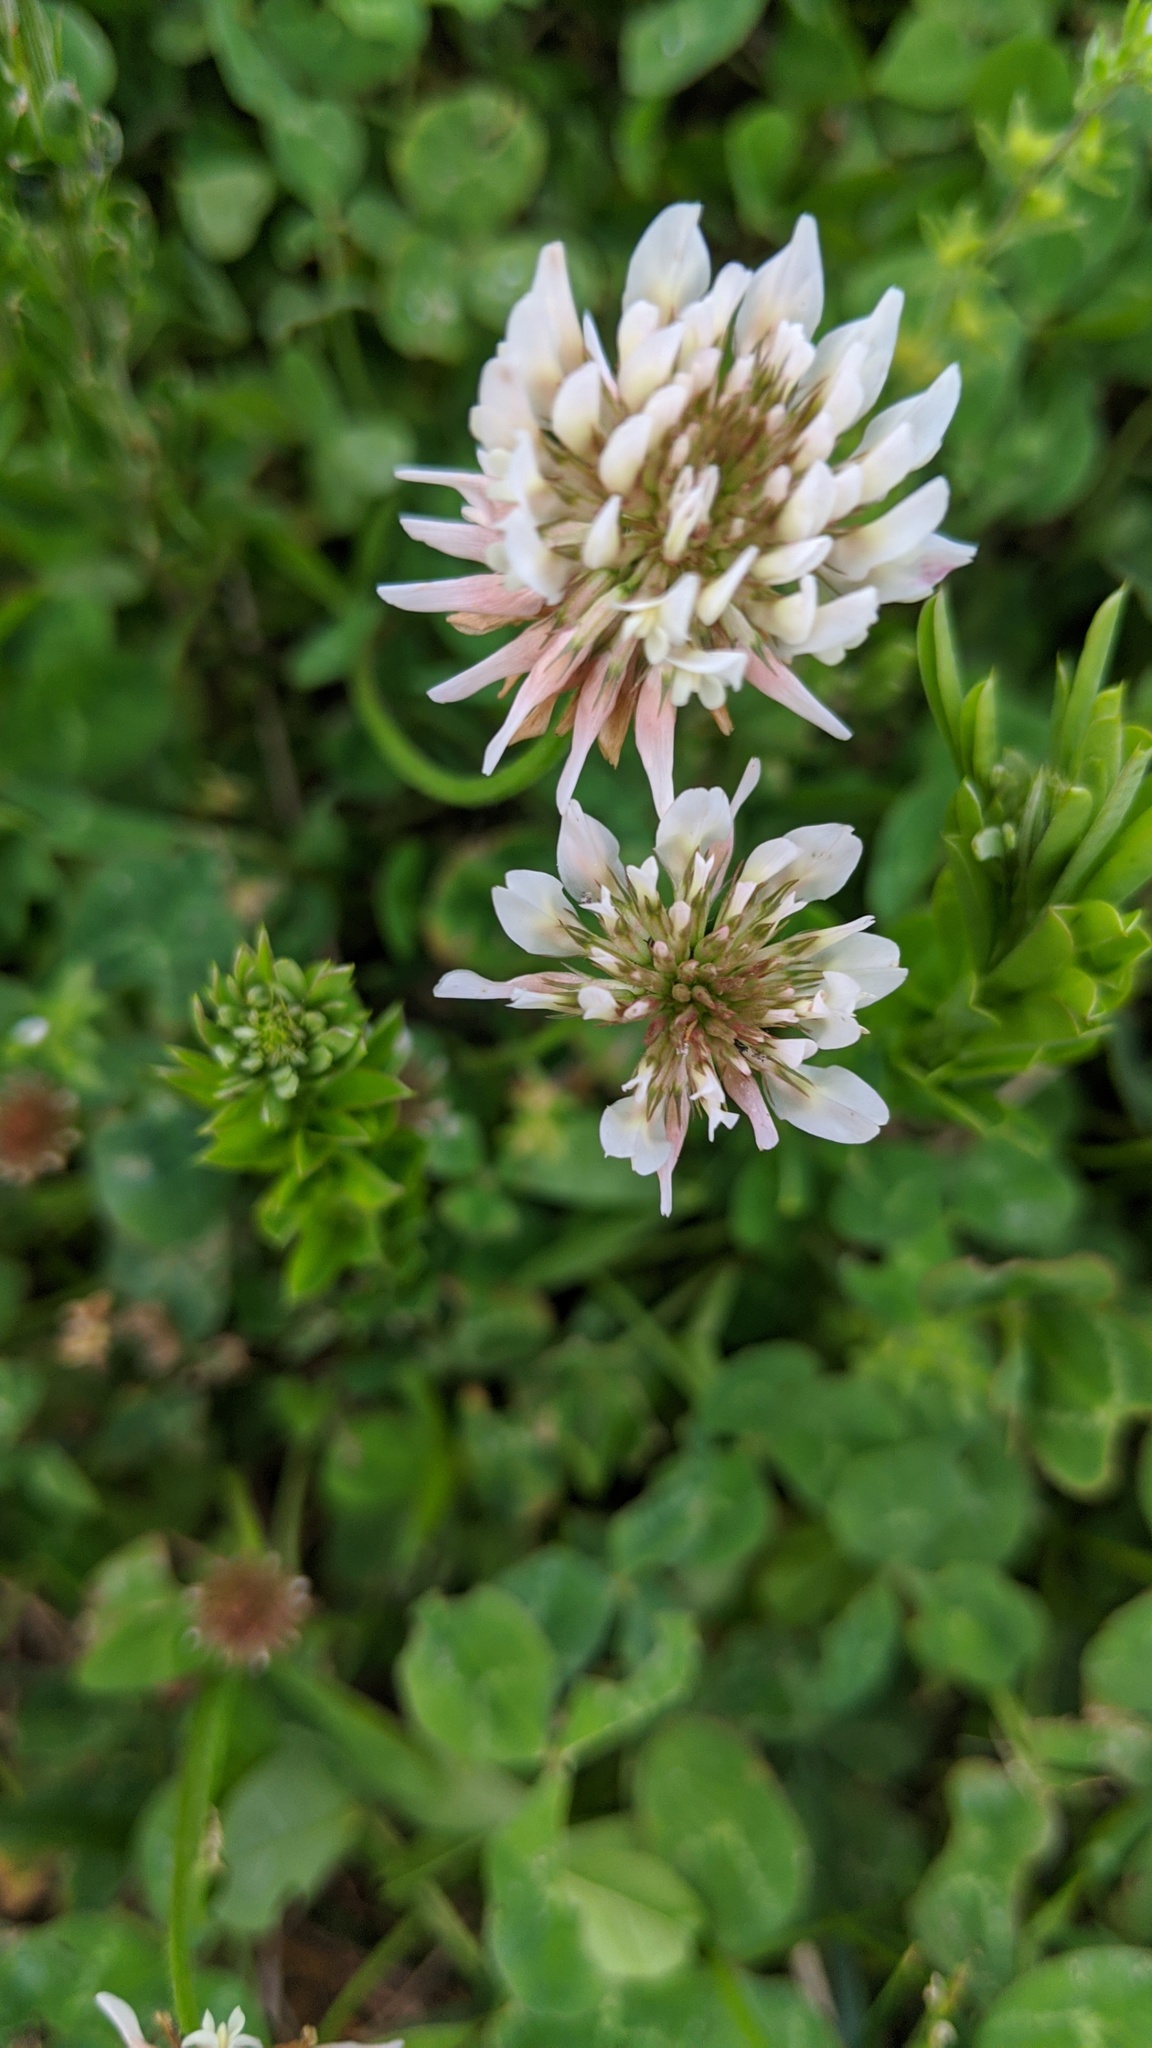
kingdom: Plantae
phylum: Tracheophyta
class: Magnoliopsida
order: Fabales
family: Fabaceae
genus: Trifolium
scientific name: Trifolium repens
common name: White clover
